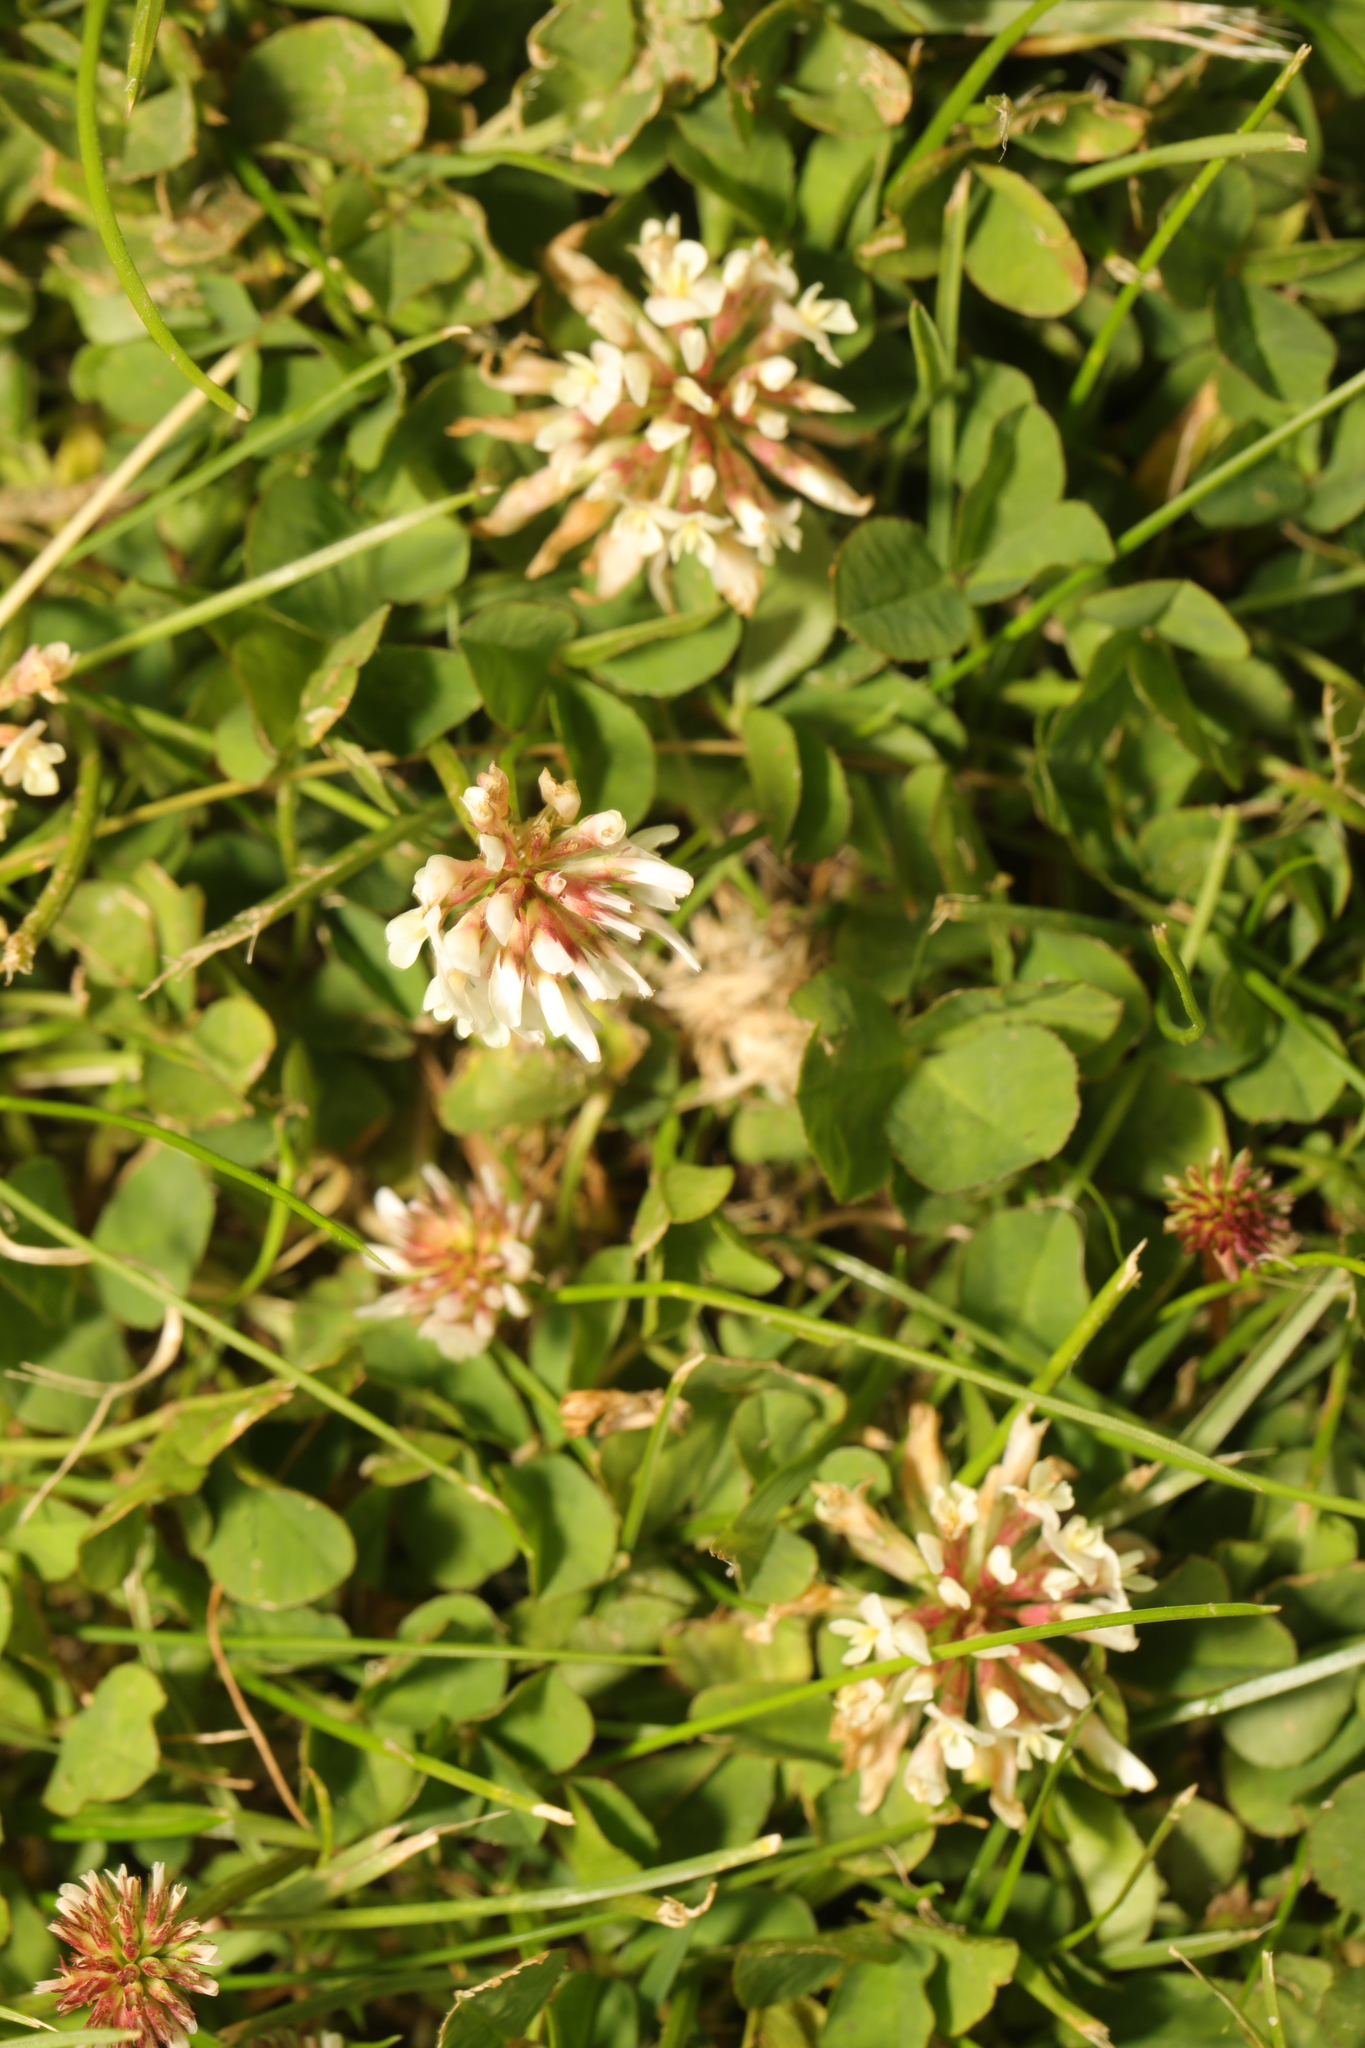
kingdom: Plantae
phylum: Tracheophyta
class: Magnoliopsida
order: Fabales
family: Fabaceae
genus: Trifolium
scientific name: Trifolium repens
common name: White clover
